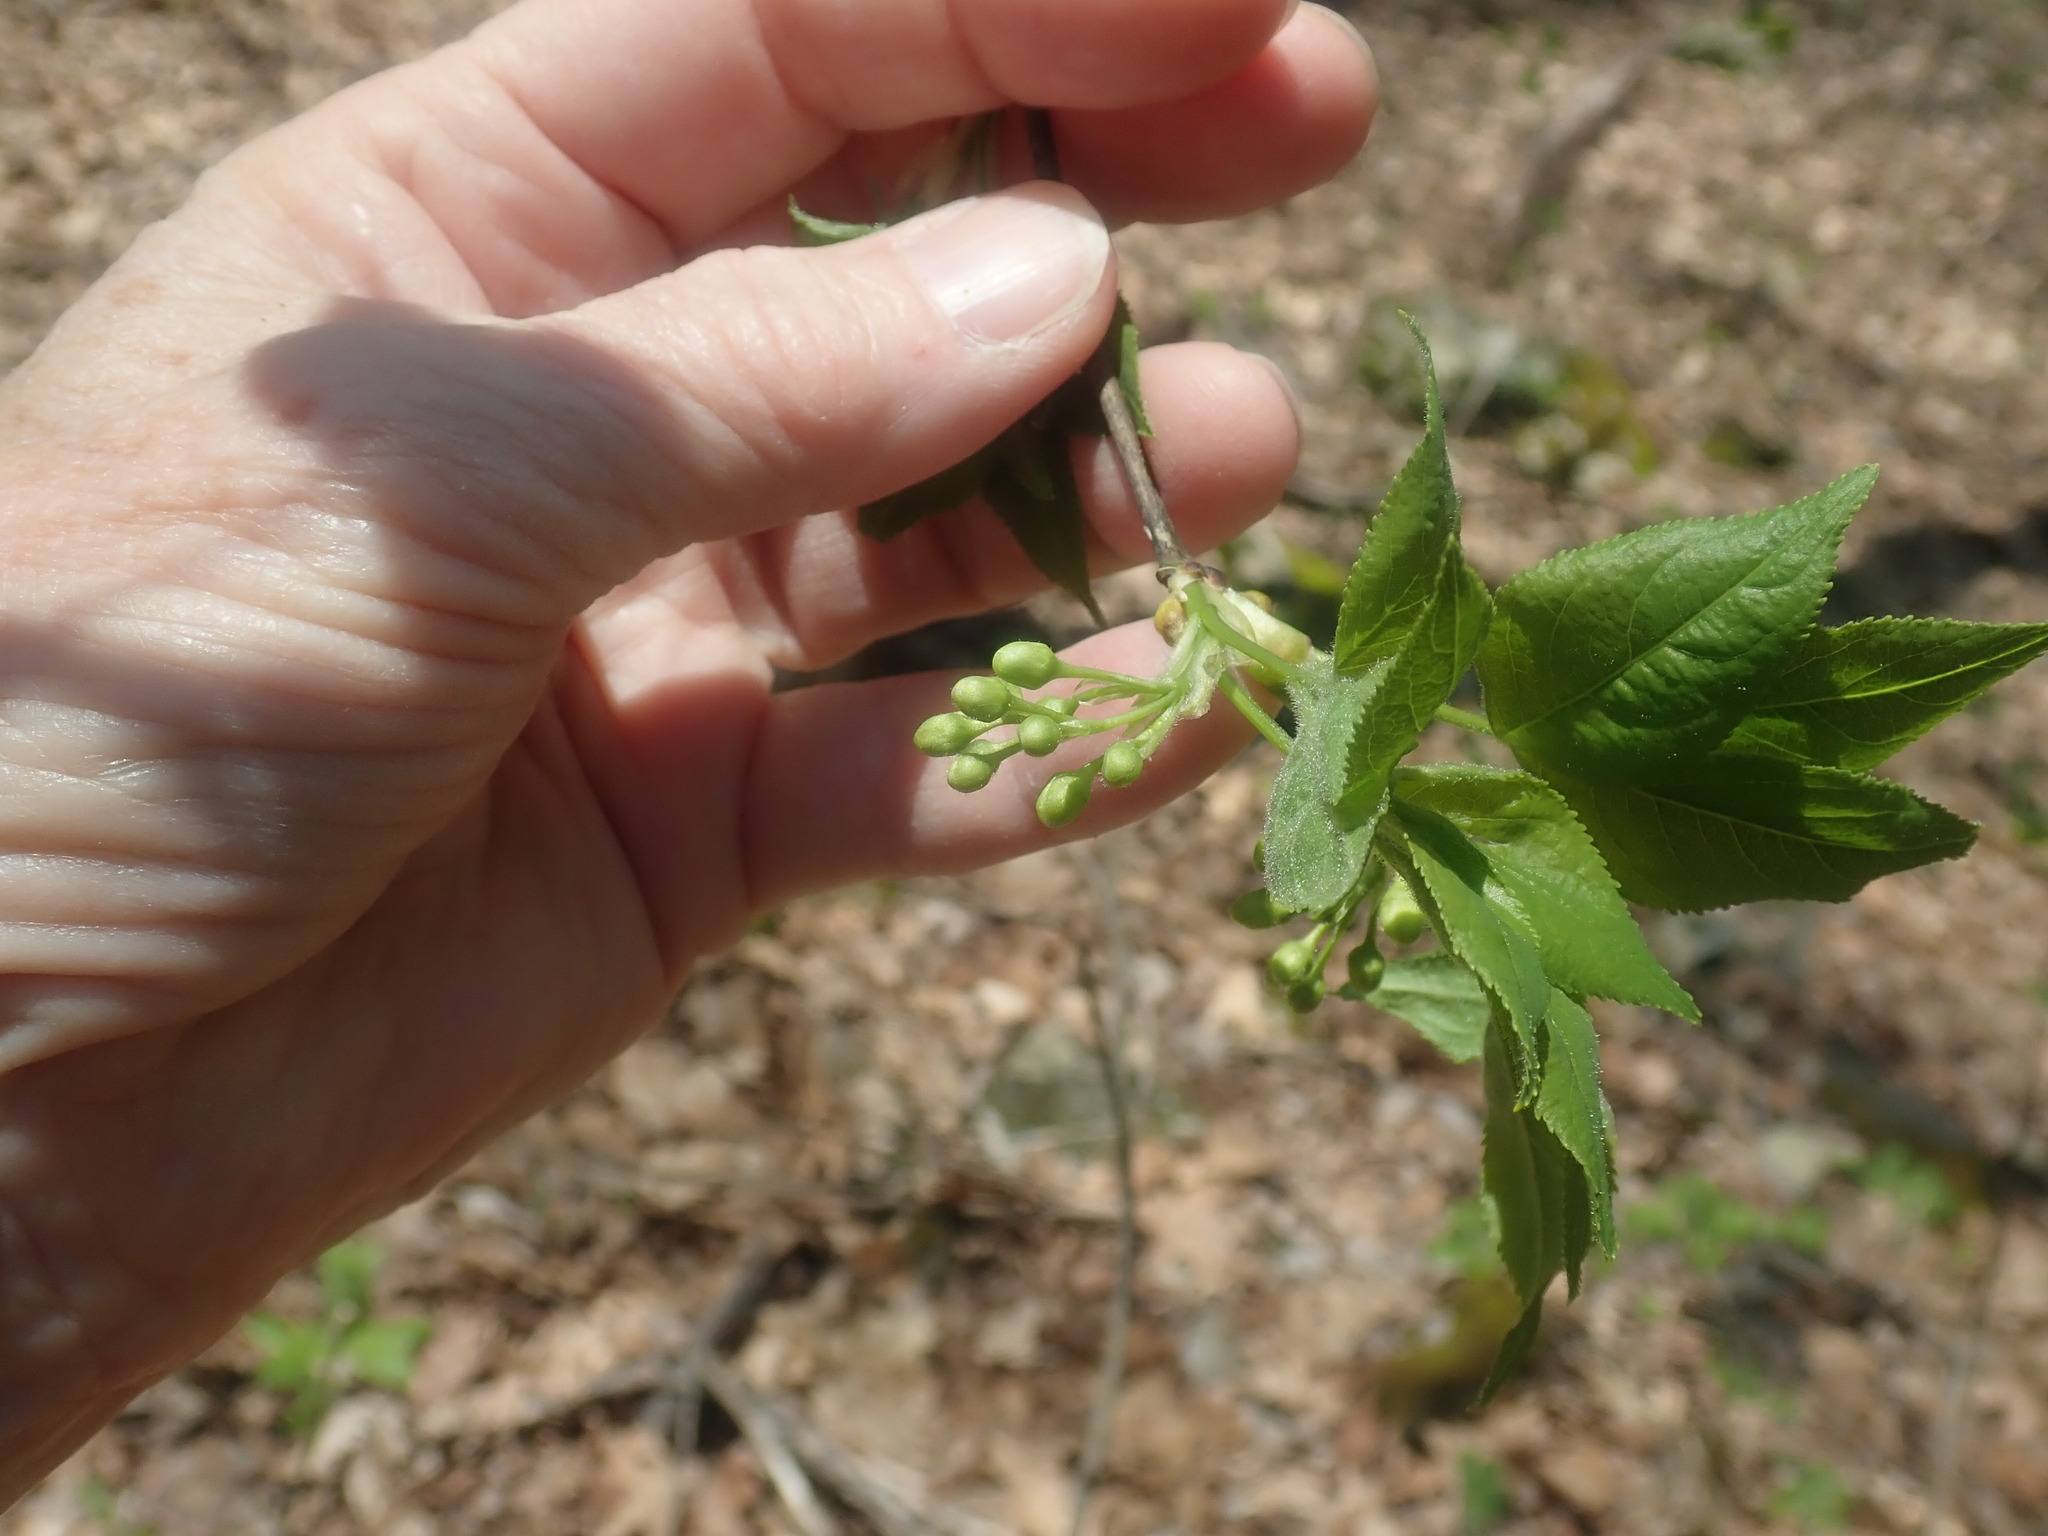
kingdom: Plantae
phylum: Tracheophyta
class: Magnoliopsida
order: Crossosomatales
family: Staphyleaceae
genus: Staphylea
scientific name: Staphylea trifolia
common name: American bladdernut
